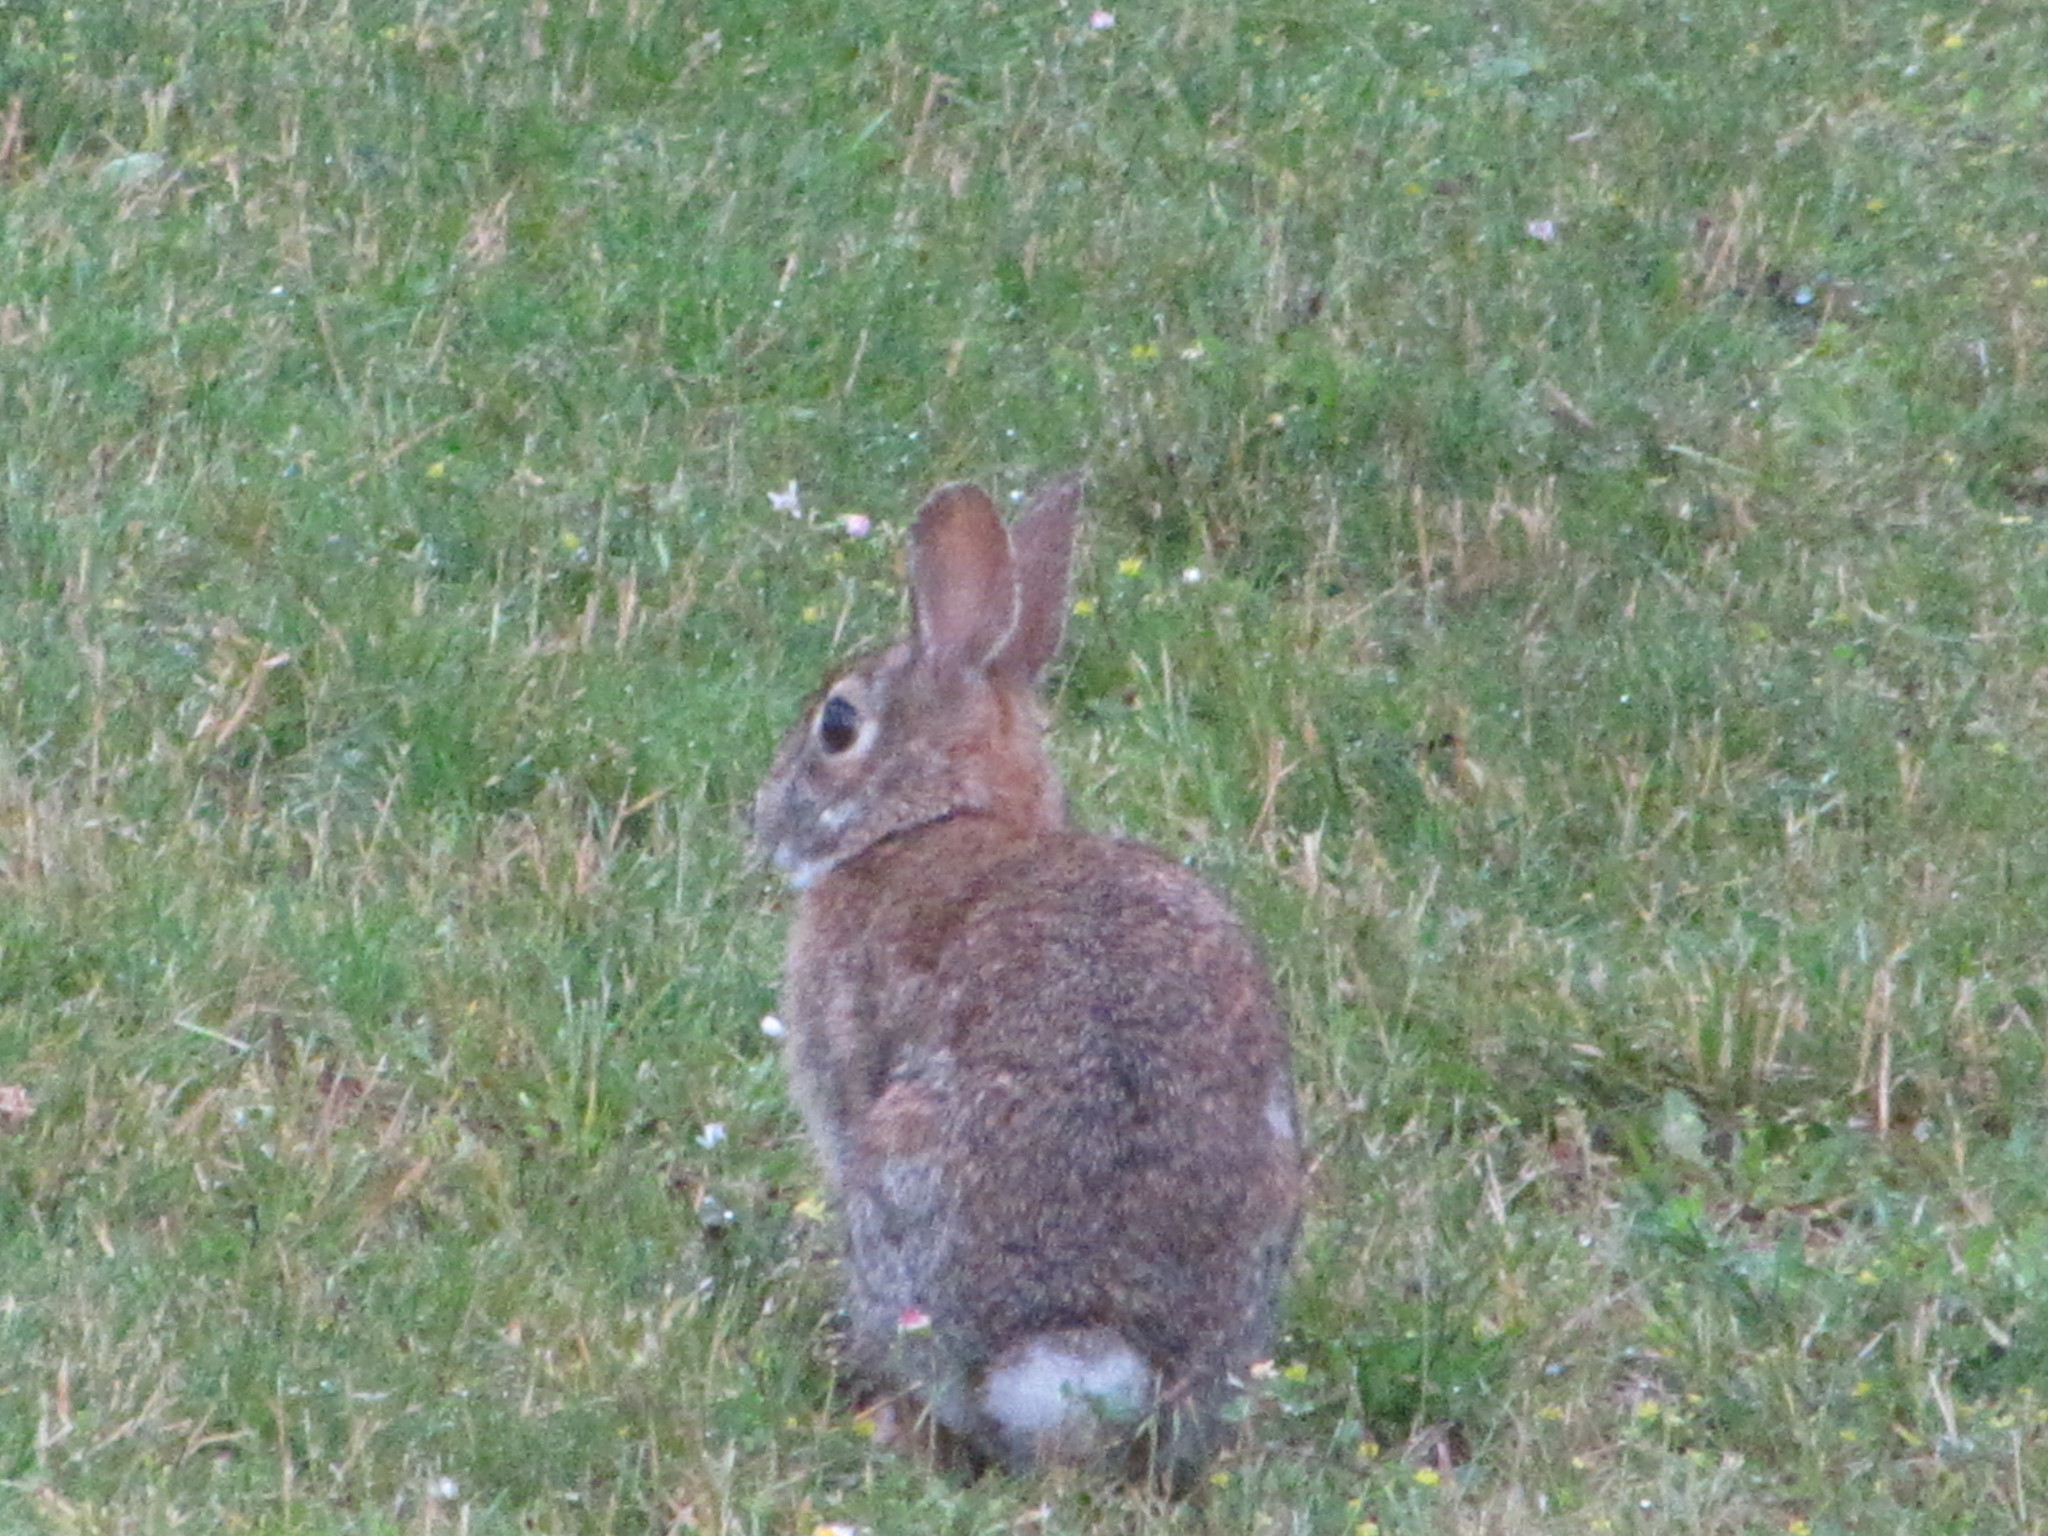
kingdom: Animalia
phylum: Chordata
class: Mammalia
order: Lagomorpha
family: Leporidae
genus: Sylvilagus
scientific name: Sylvilagus floridanus
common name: Eastern cottontail
